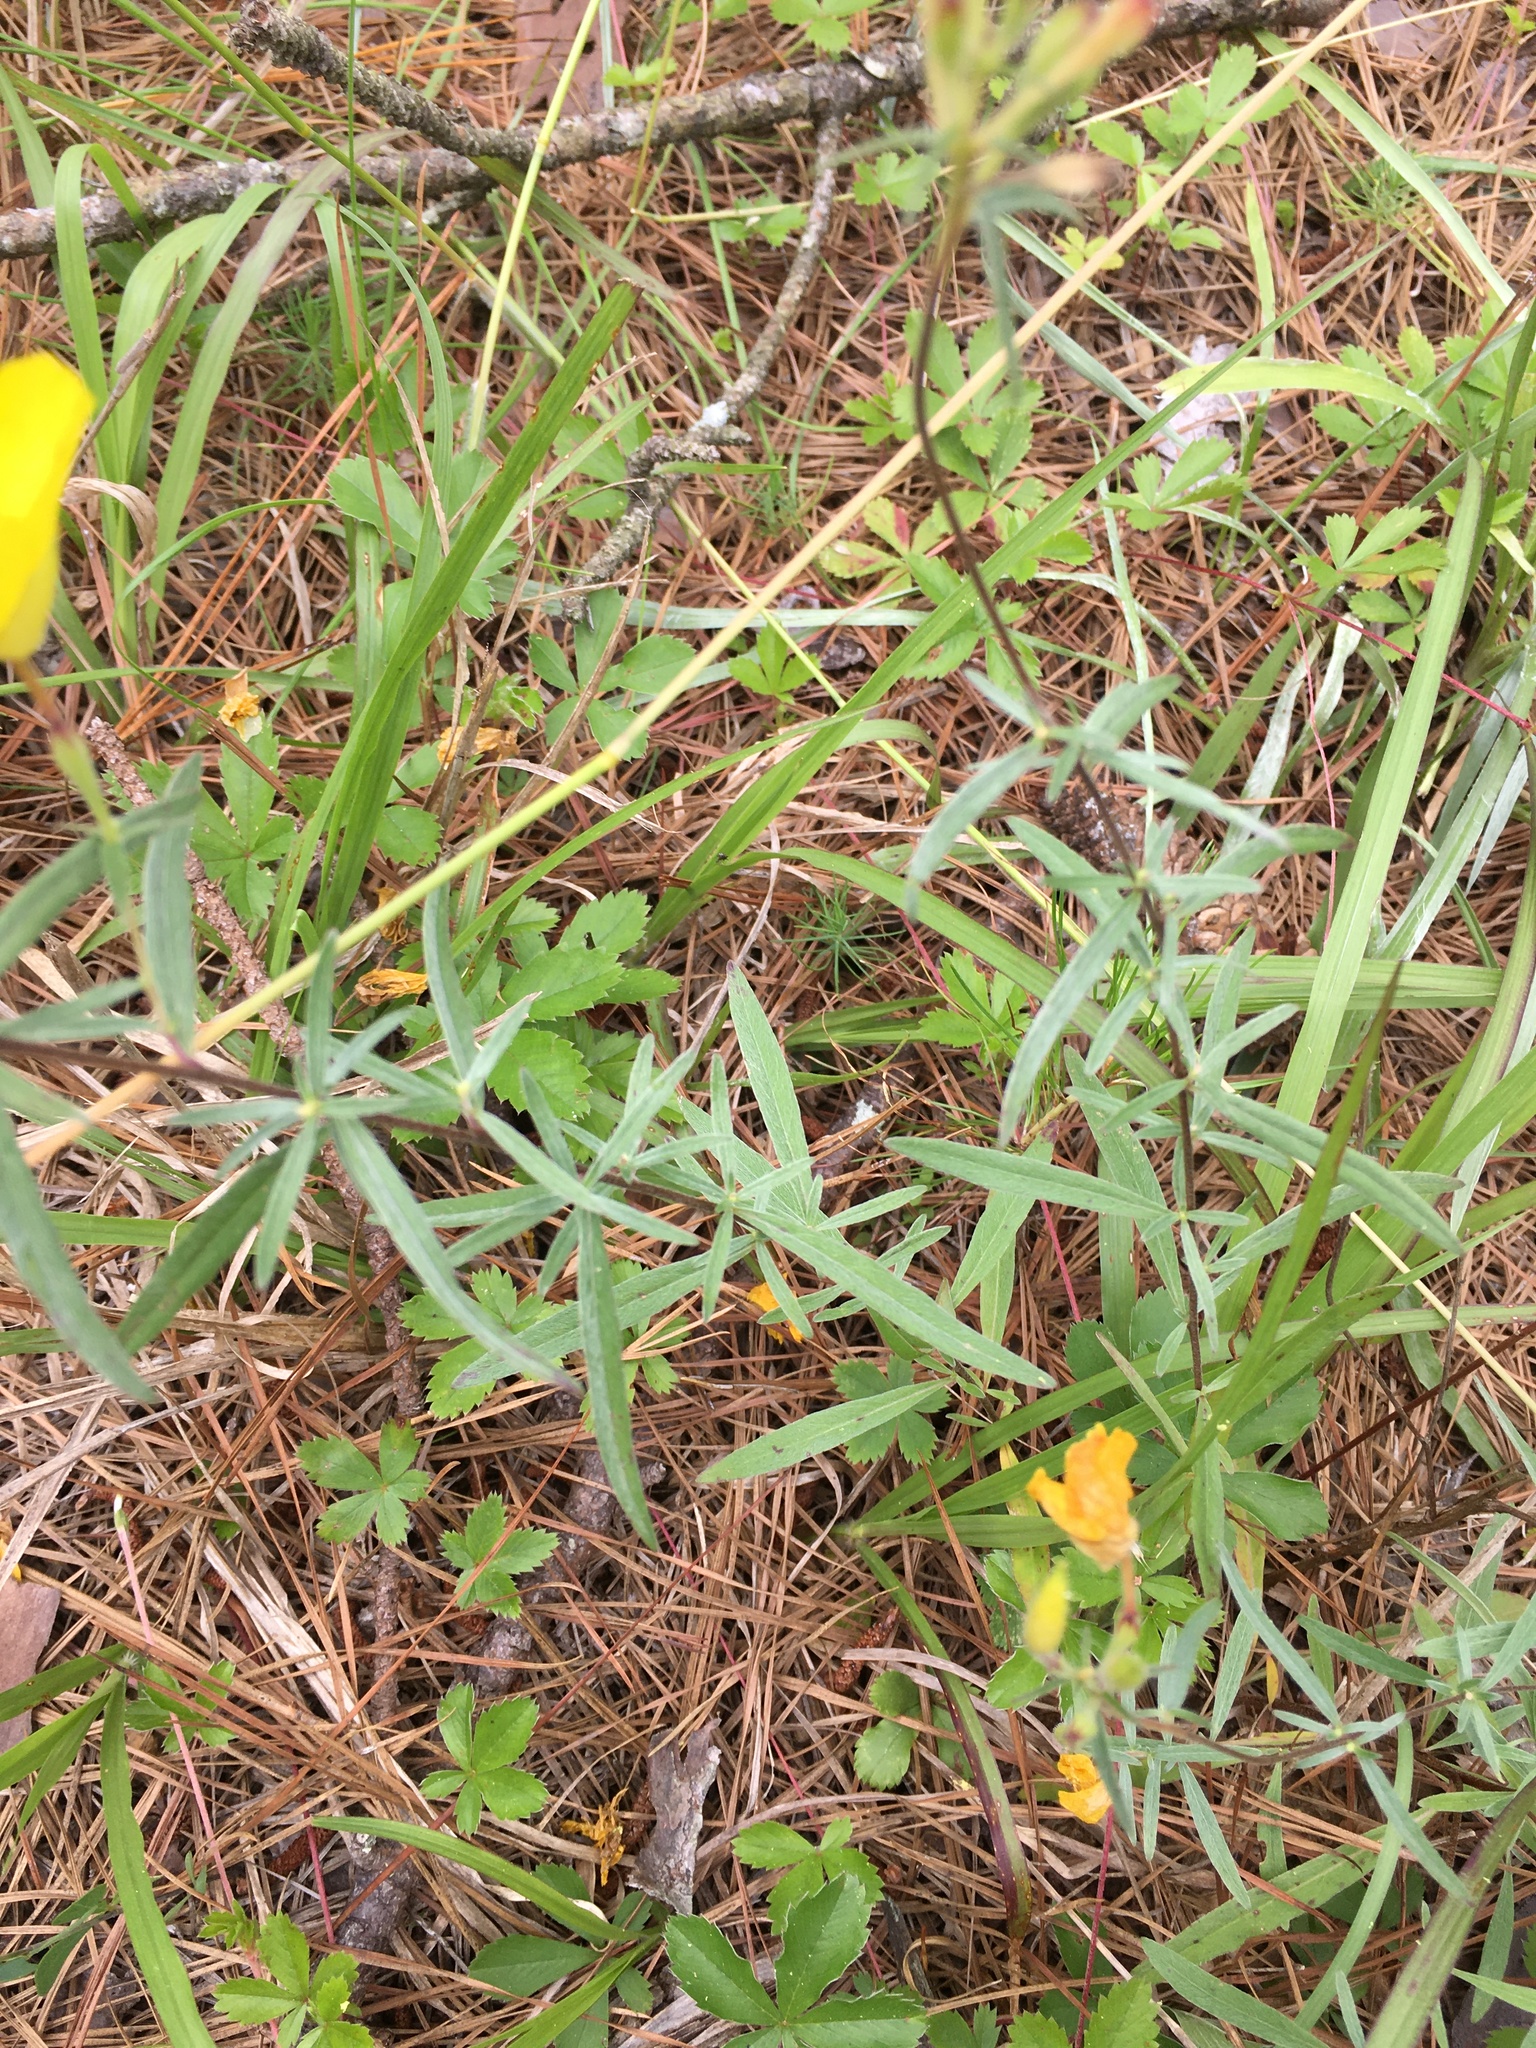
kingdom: Plantae
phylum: Tracheophyta
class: Magnoliopsida
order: Myrtales
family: Onagraceae
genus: Oenothera
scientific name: Oenothera fruticosa
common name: Southern sundrops
